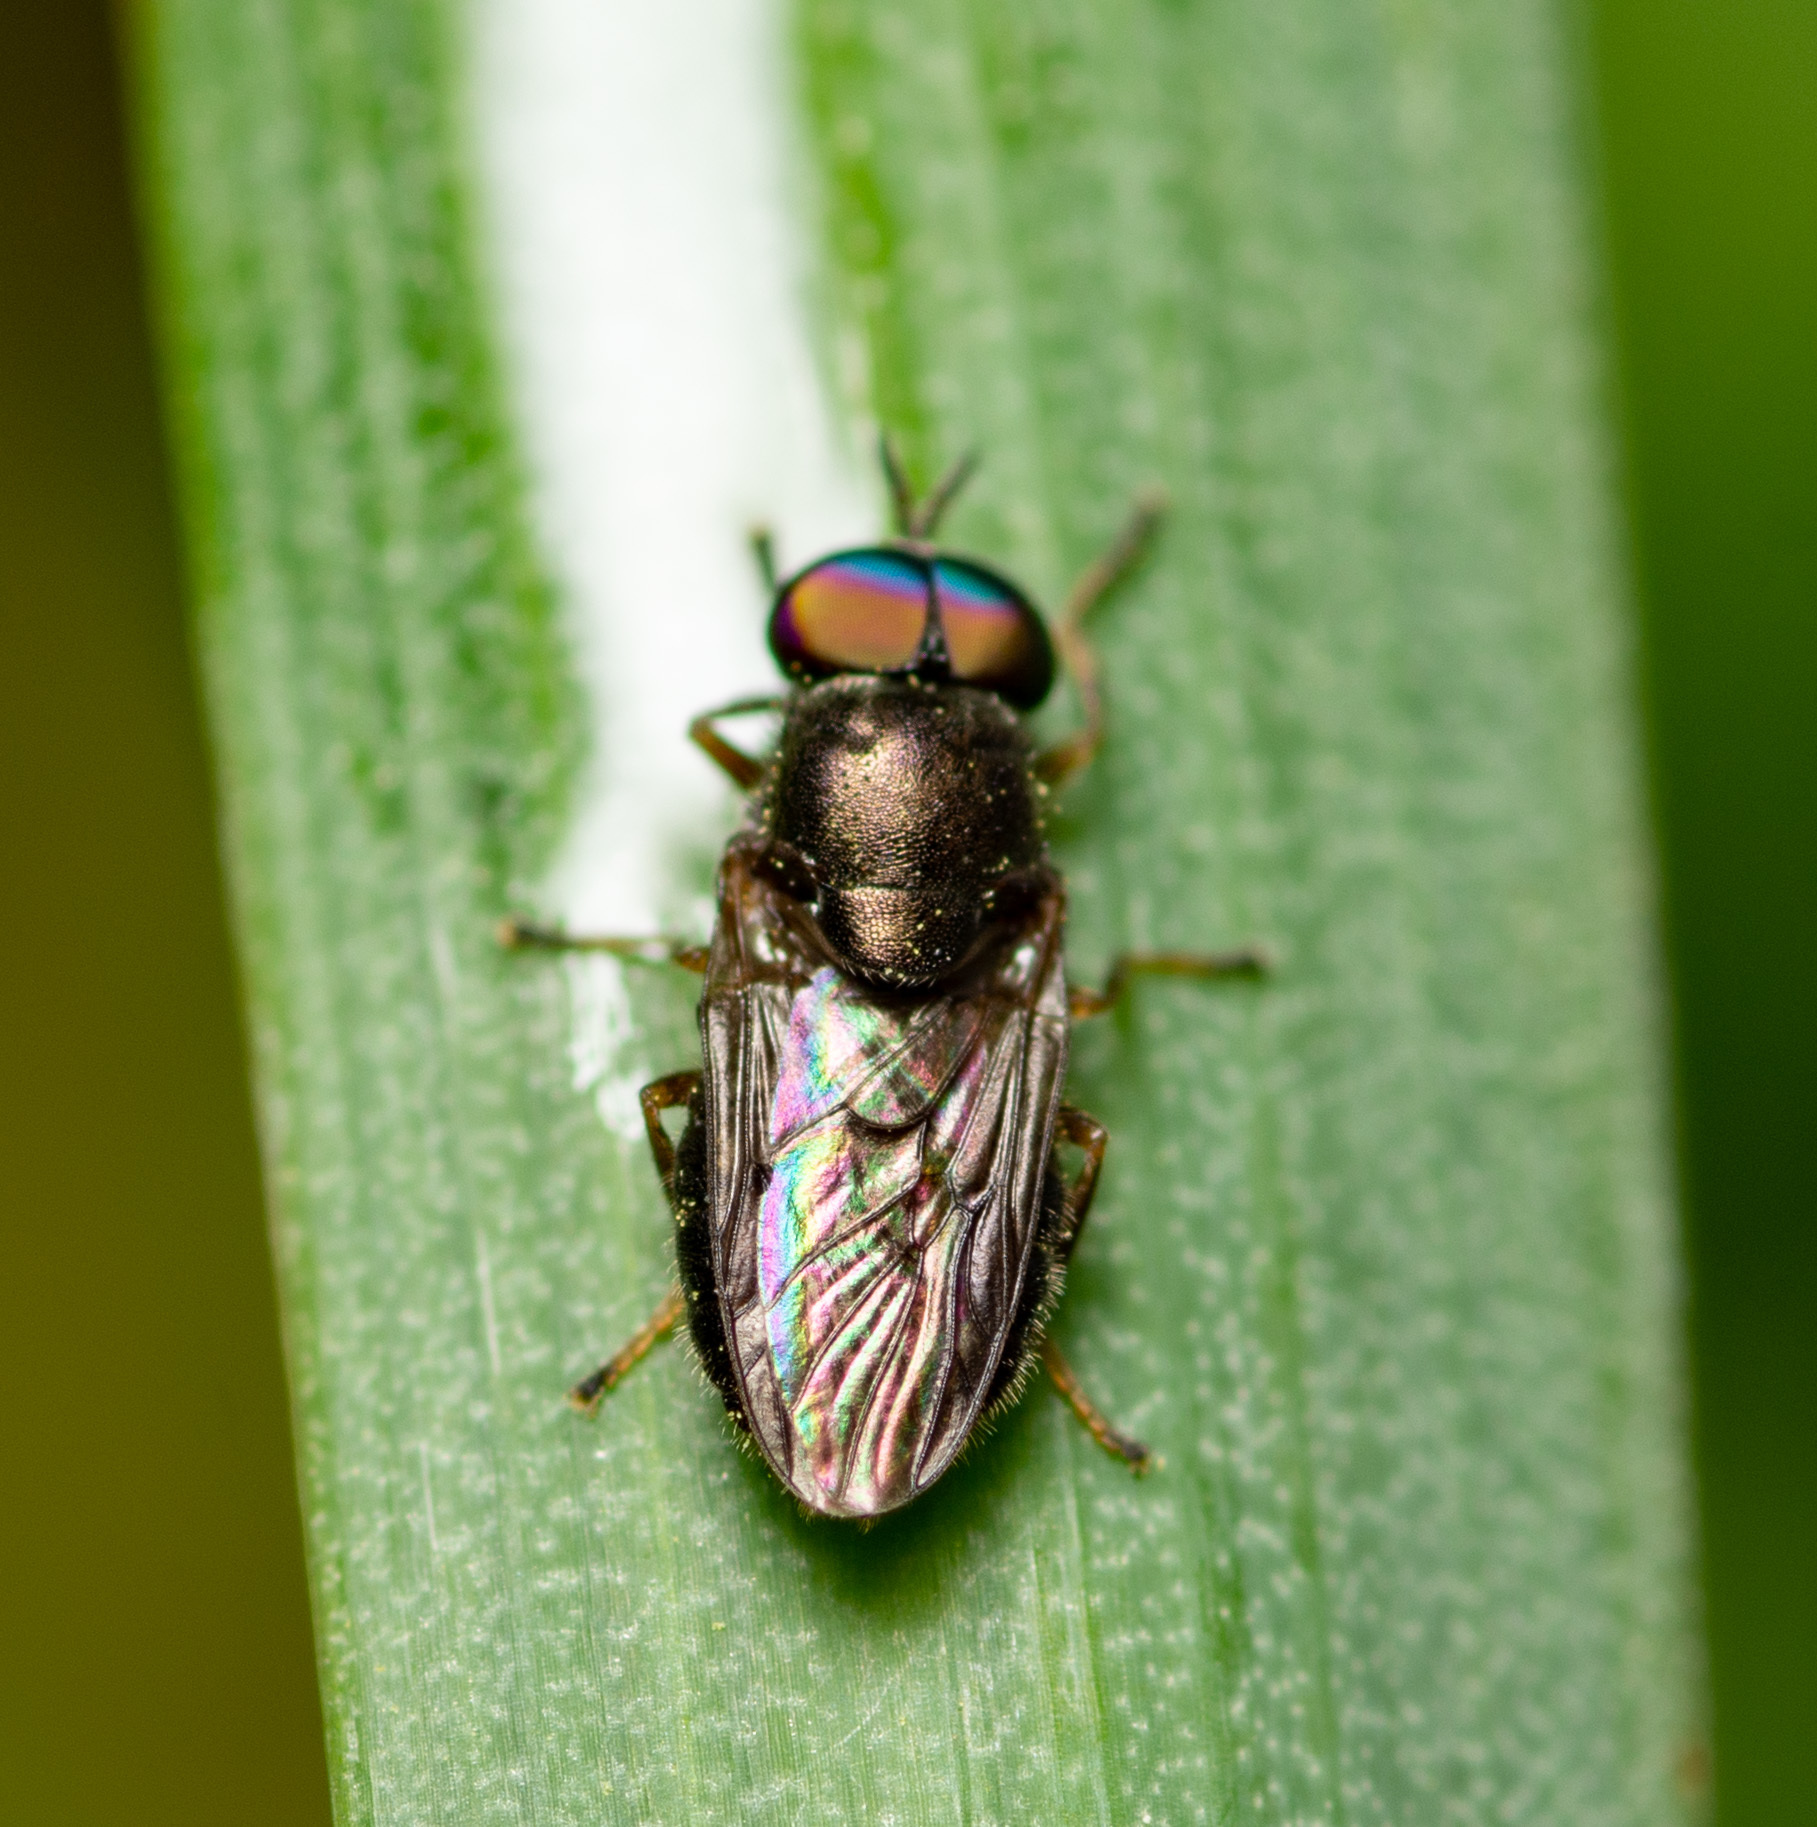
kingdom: Animalia
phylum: Arthropoda
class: Insecta
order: Diptera
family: Stratiomyidae
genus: Allognosta
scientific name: Allognosta obscuriventris
